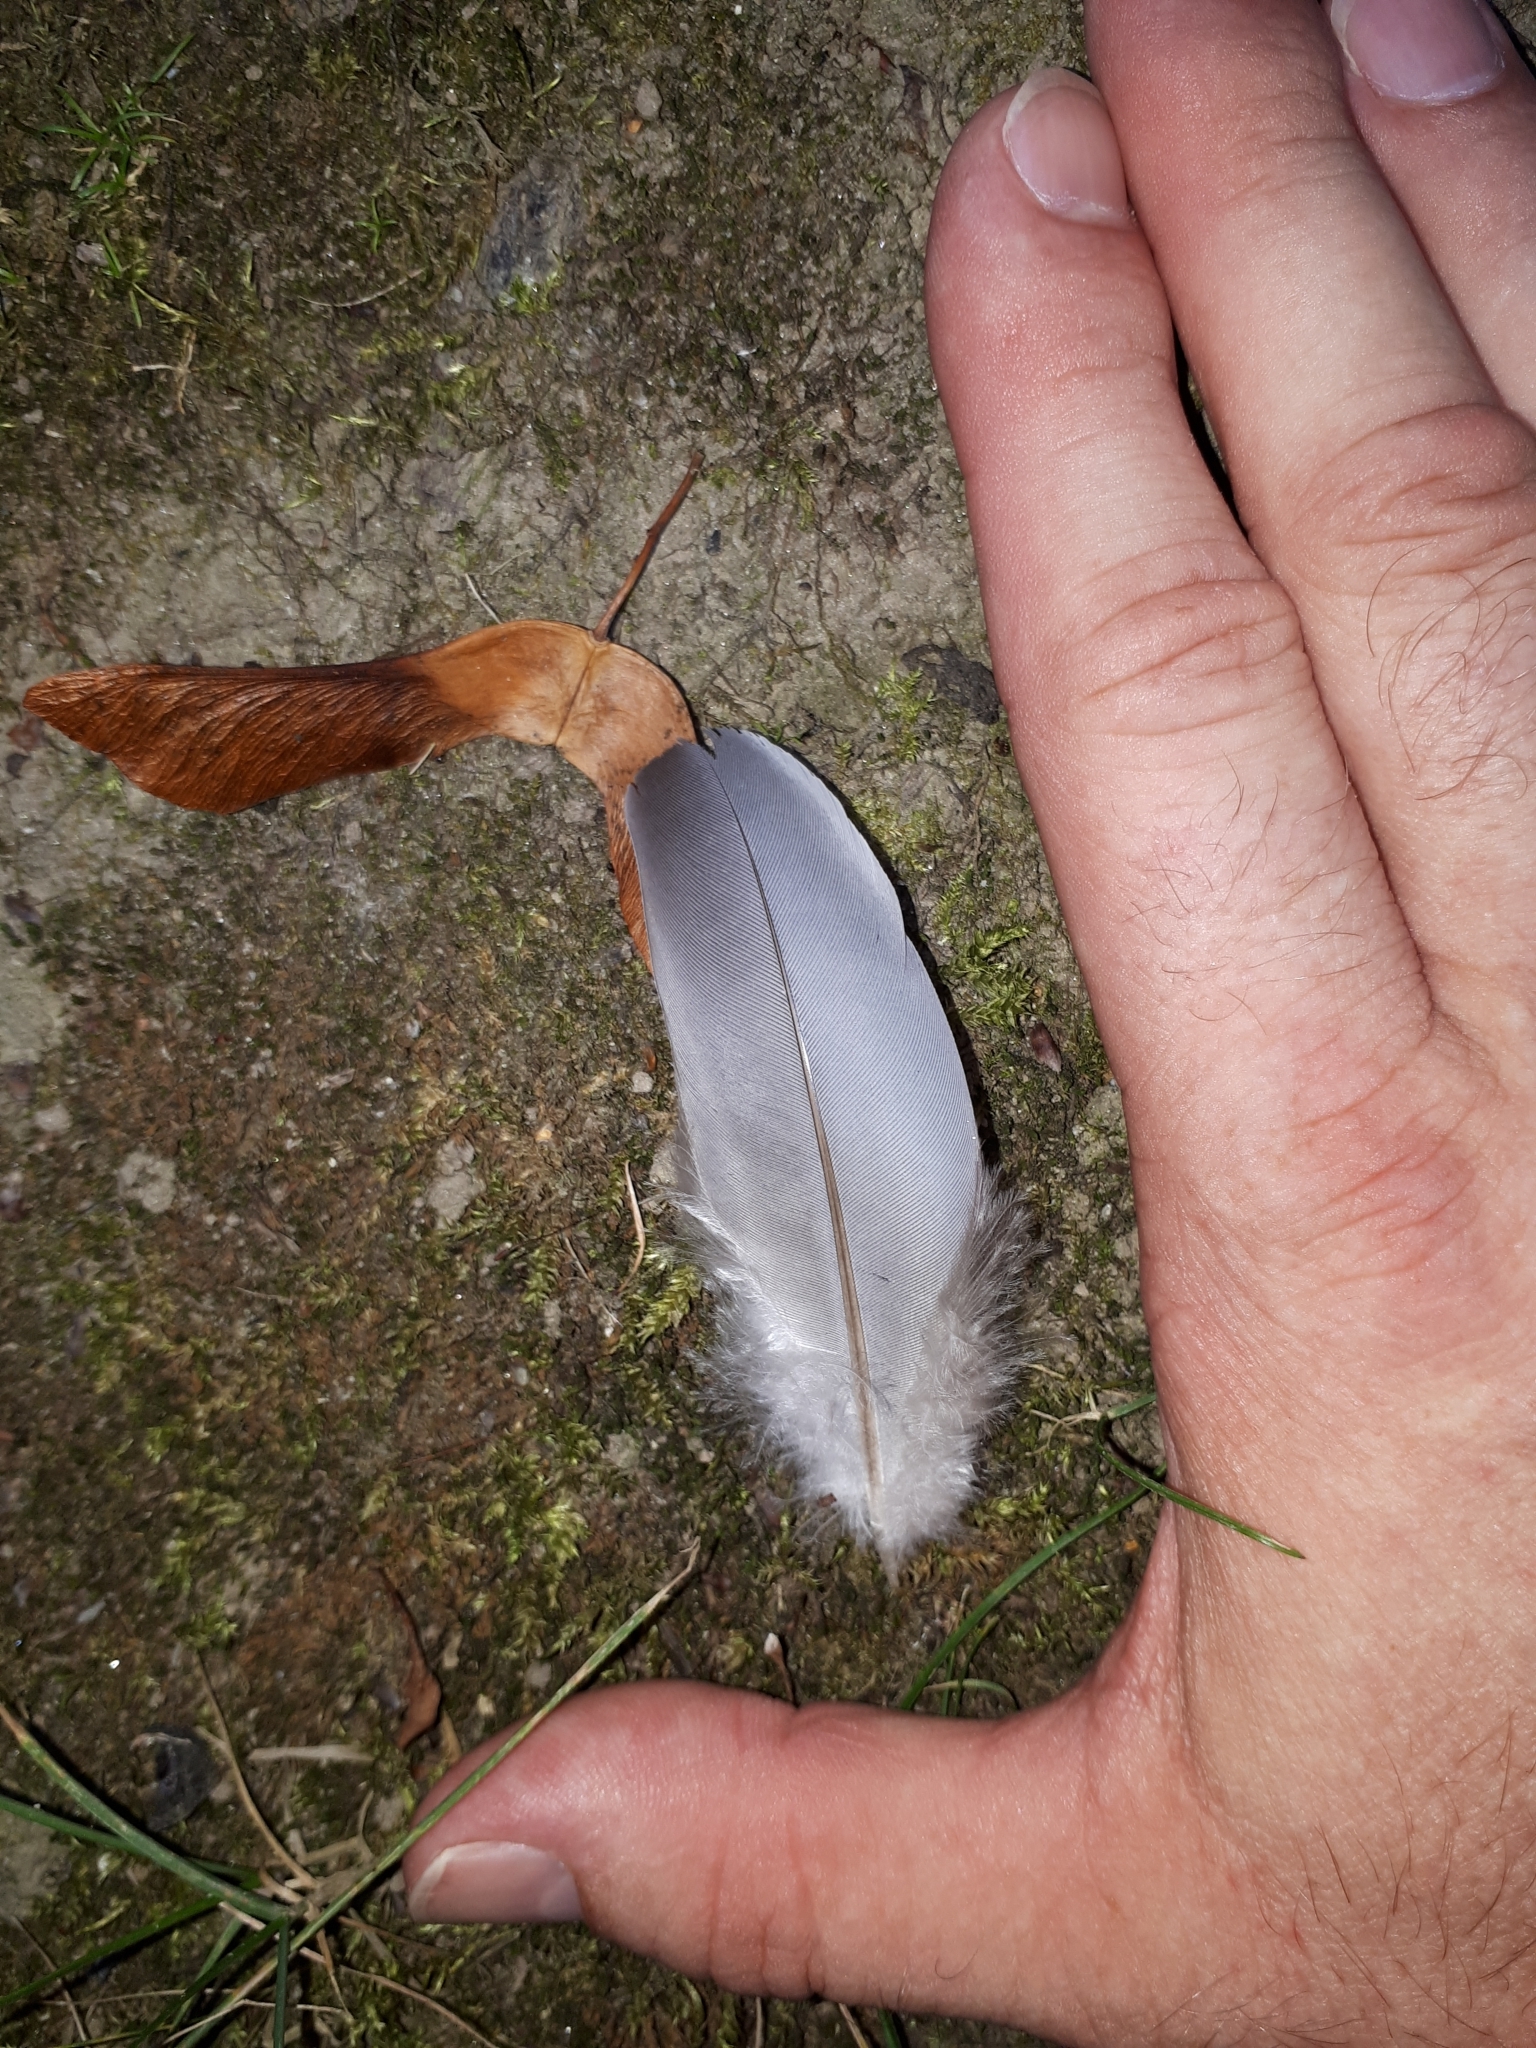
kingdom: Animalia
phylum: Chordata
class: Aves
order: Columbiformes
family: Columbidae
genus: Columba
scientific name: Columba palumbus
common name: Common wood pigeon
